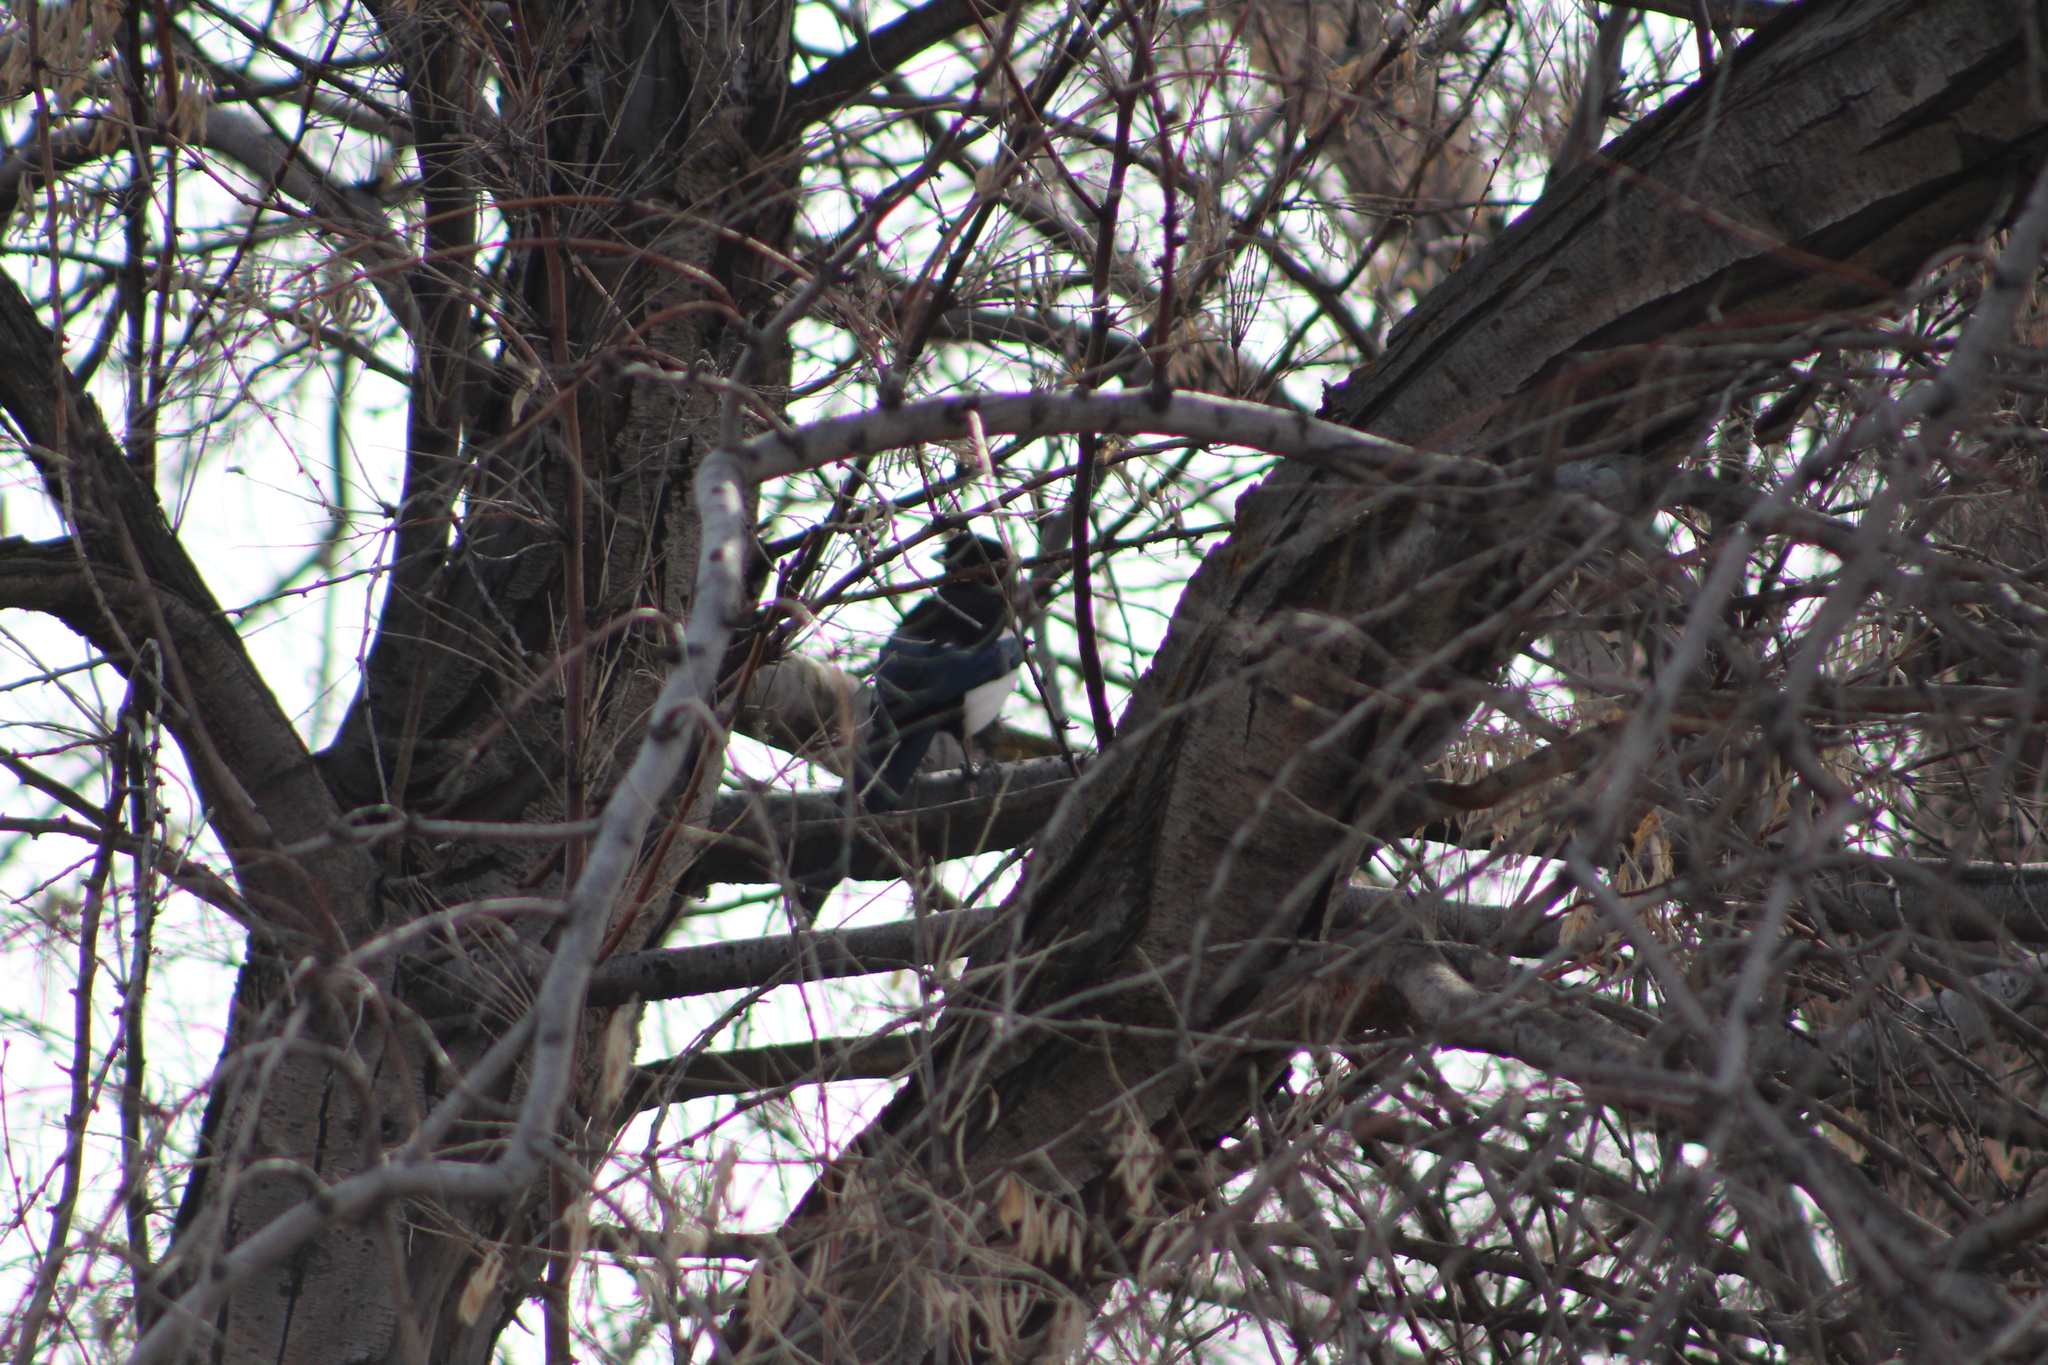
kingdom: Animalia
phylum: Chordata
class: Aves
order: Passeriformes
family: Corvidae
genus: Pica
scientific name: Pica hudsonia
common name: Black-billed magpie
